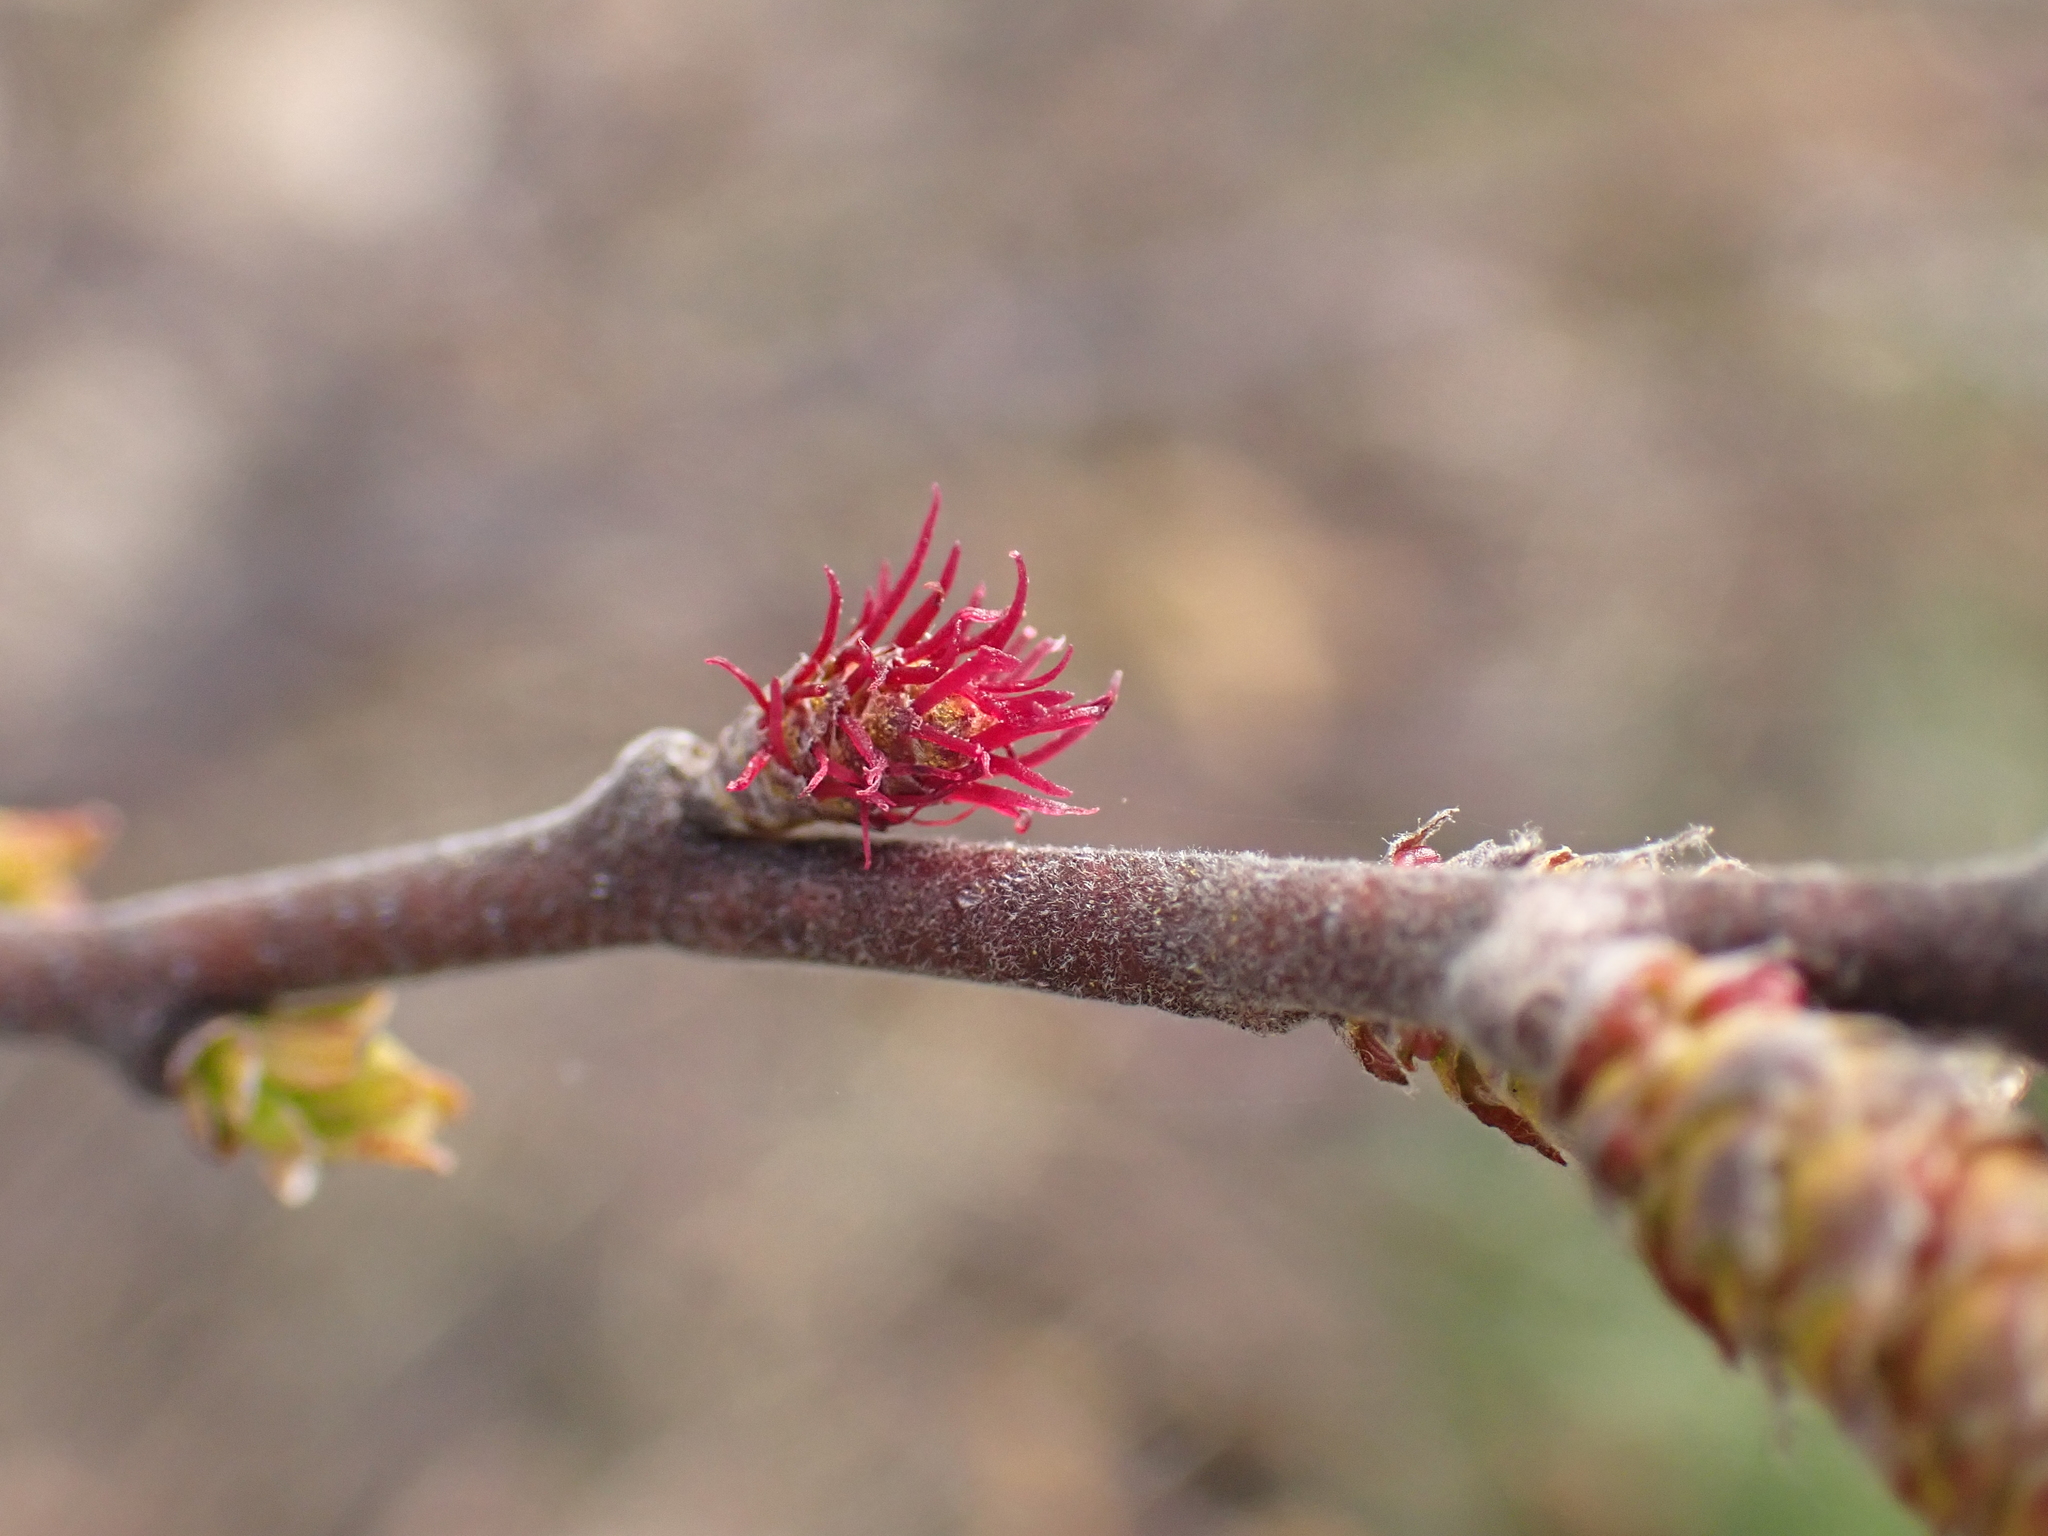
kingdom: Plantae
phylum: Tracheophyta
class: Magnoliopsida
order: Fagales
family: Myricaceae
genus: Comptonia
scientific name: Comptonia peregrina
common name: Sweet-fern
